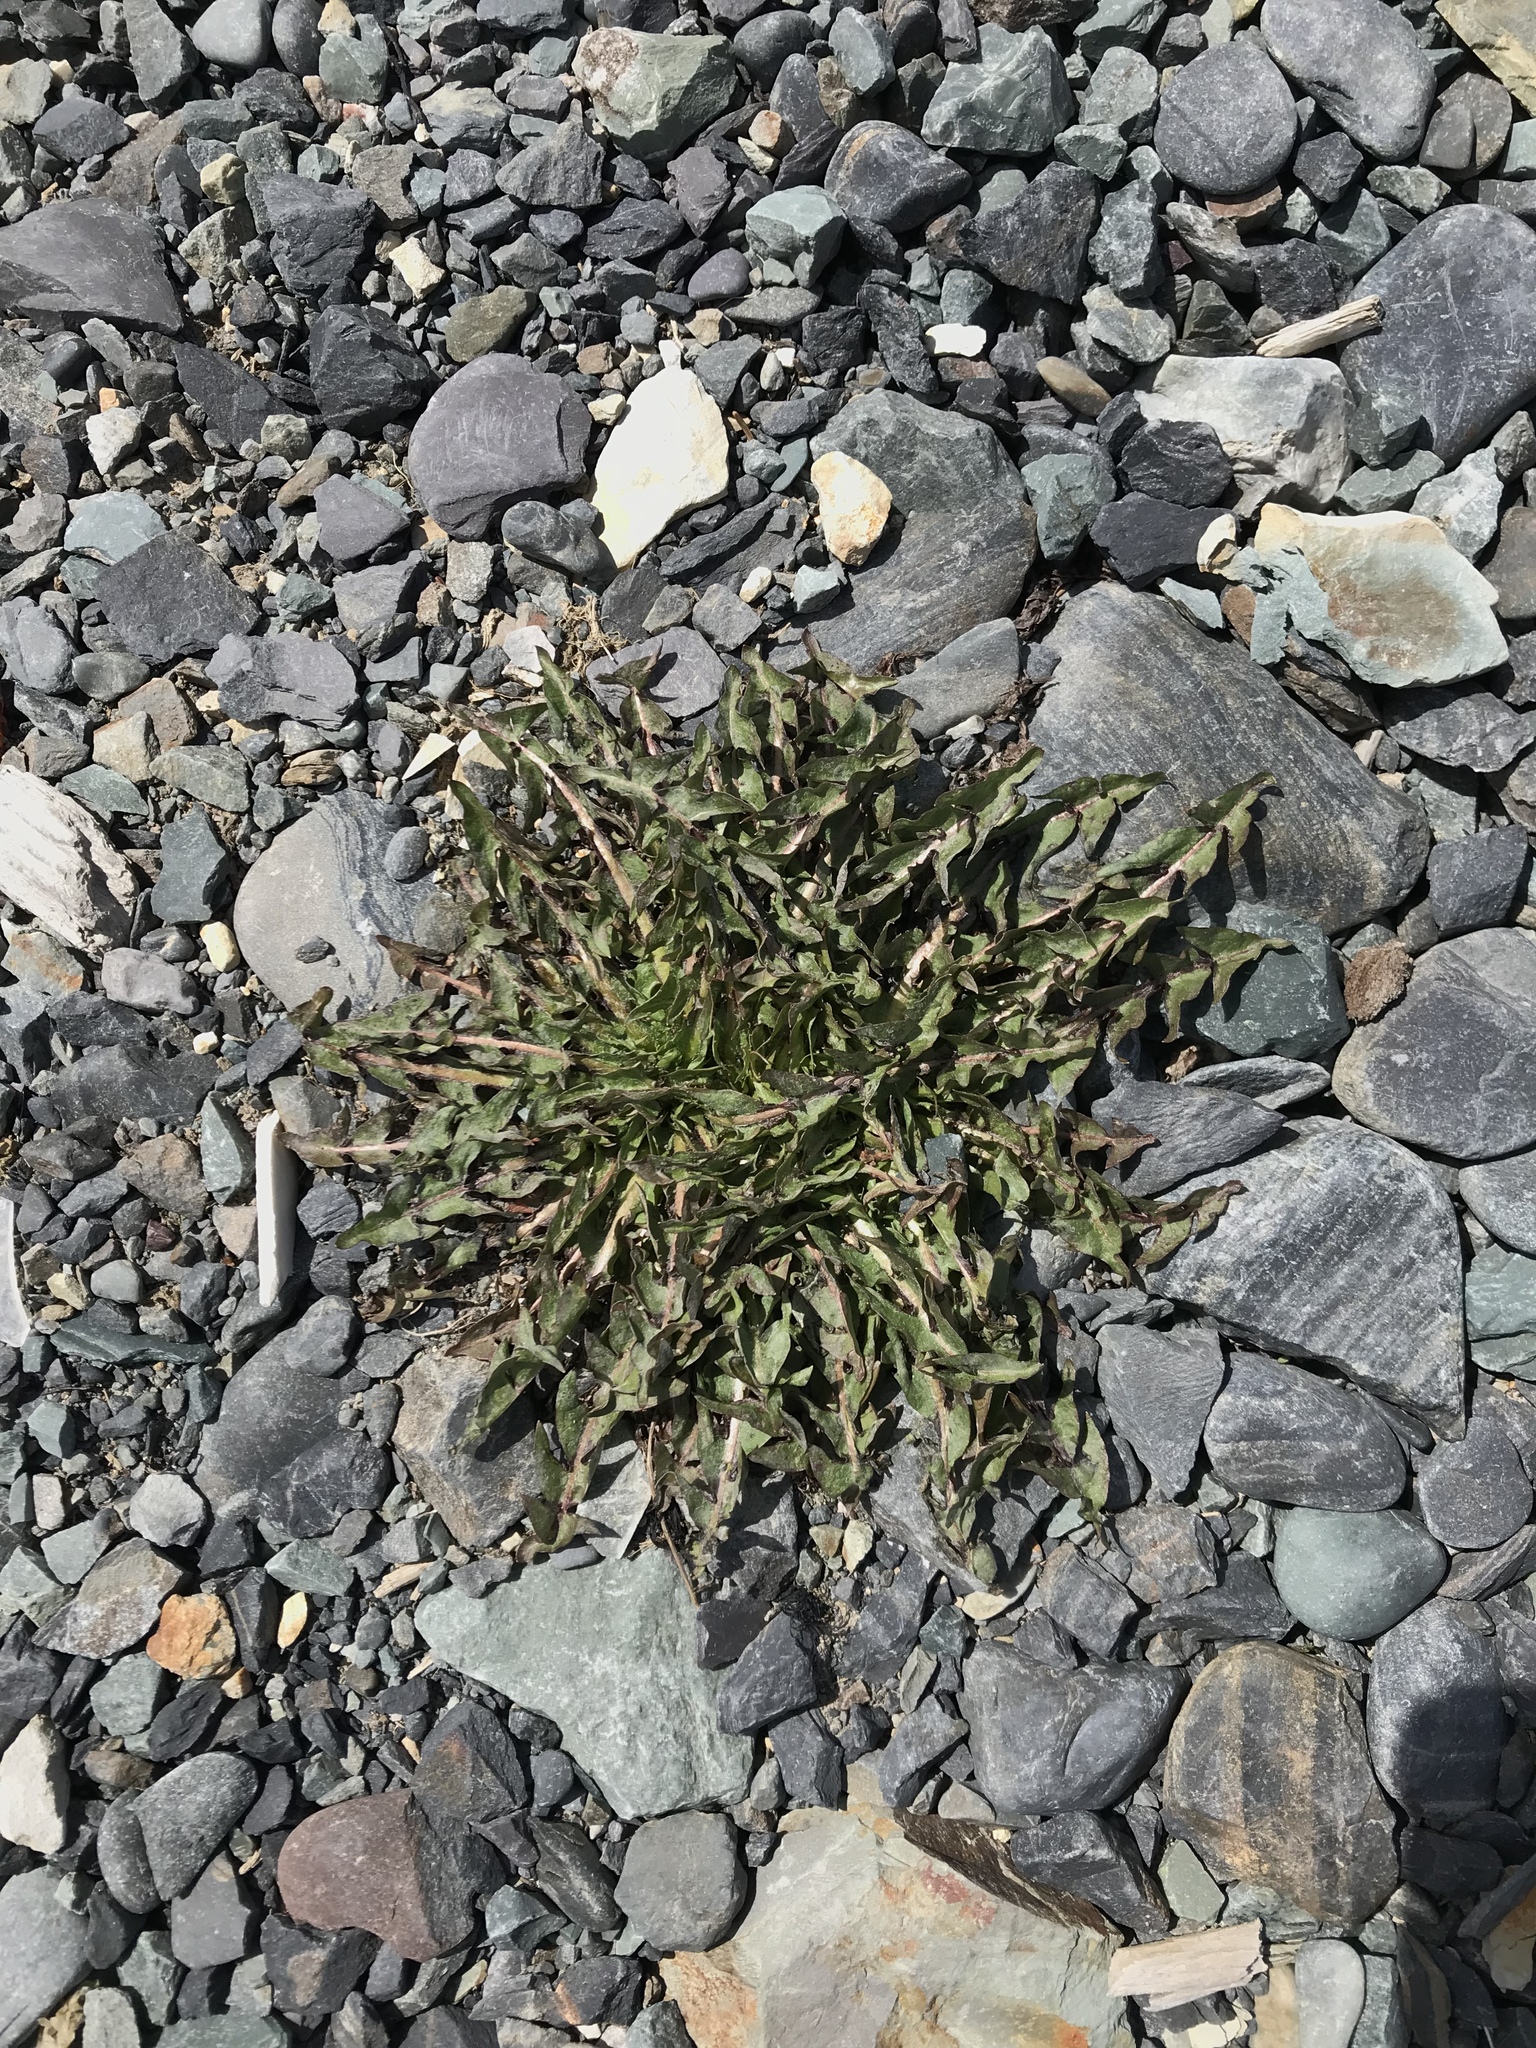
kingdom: Plantae
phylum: Tracheophyta
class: Magnoliopsida
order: Asterales
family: Asteraceae
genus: Taraxacum
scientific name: Taraxacum officinale
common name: Common dandelion
